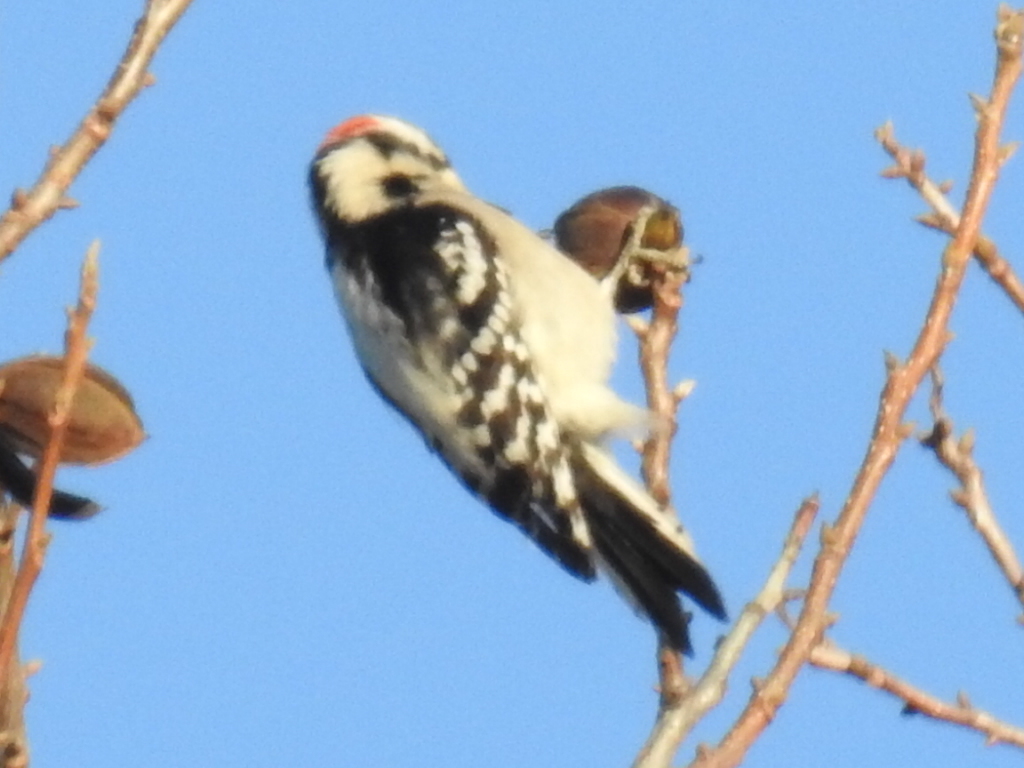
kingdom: Animalia
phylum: Chordata
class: Aves
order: Piciformes
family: Picidae
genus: Dryobates
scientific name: Dryobates pubescens
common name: Downy woodpecker
